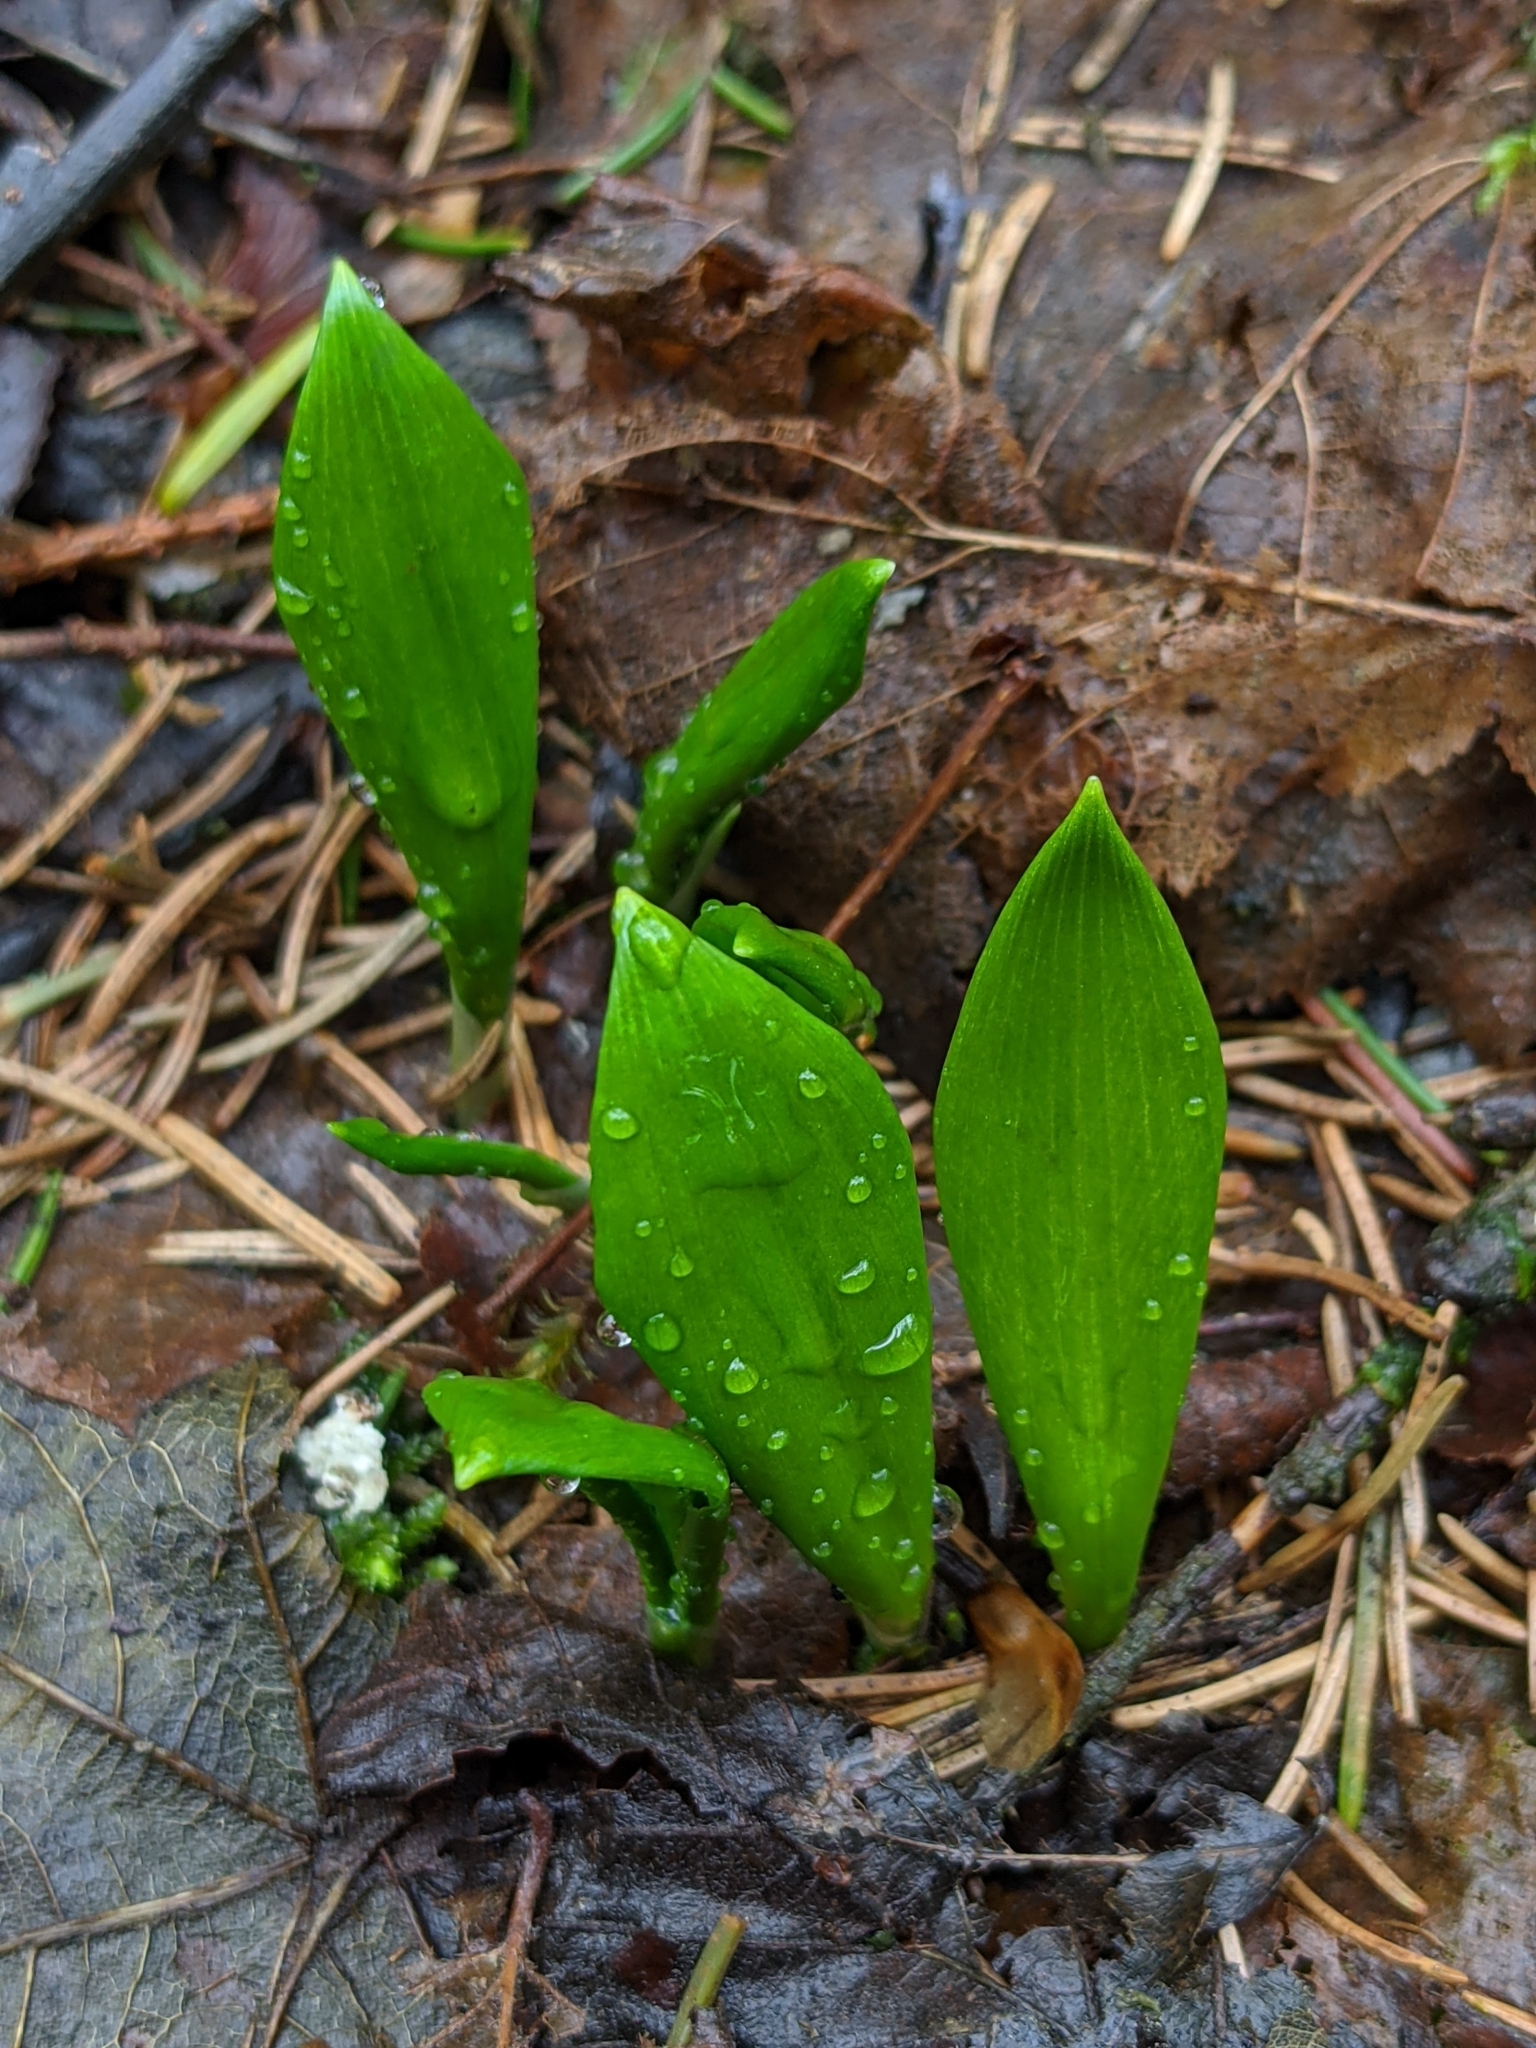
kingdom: Plantae
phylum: Tracheophyta
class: Liliopsida
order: Asparagales
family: Amaryllidaceae
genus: Allium
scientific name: Allium ursinum
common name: Ramsons
